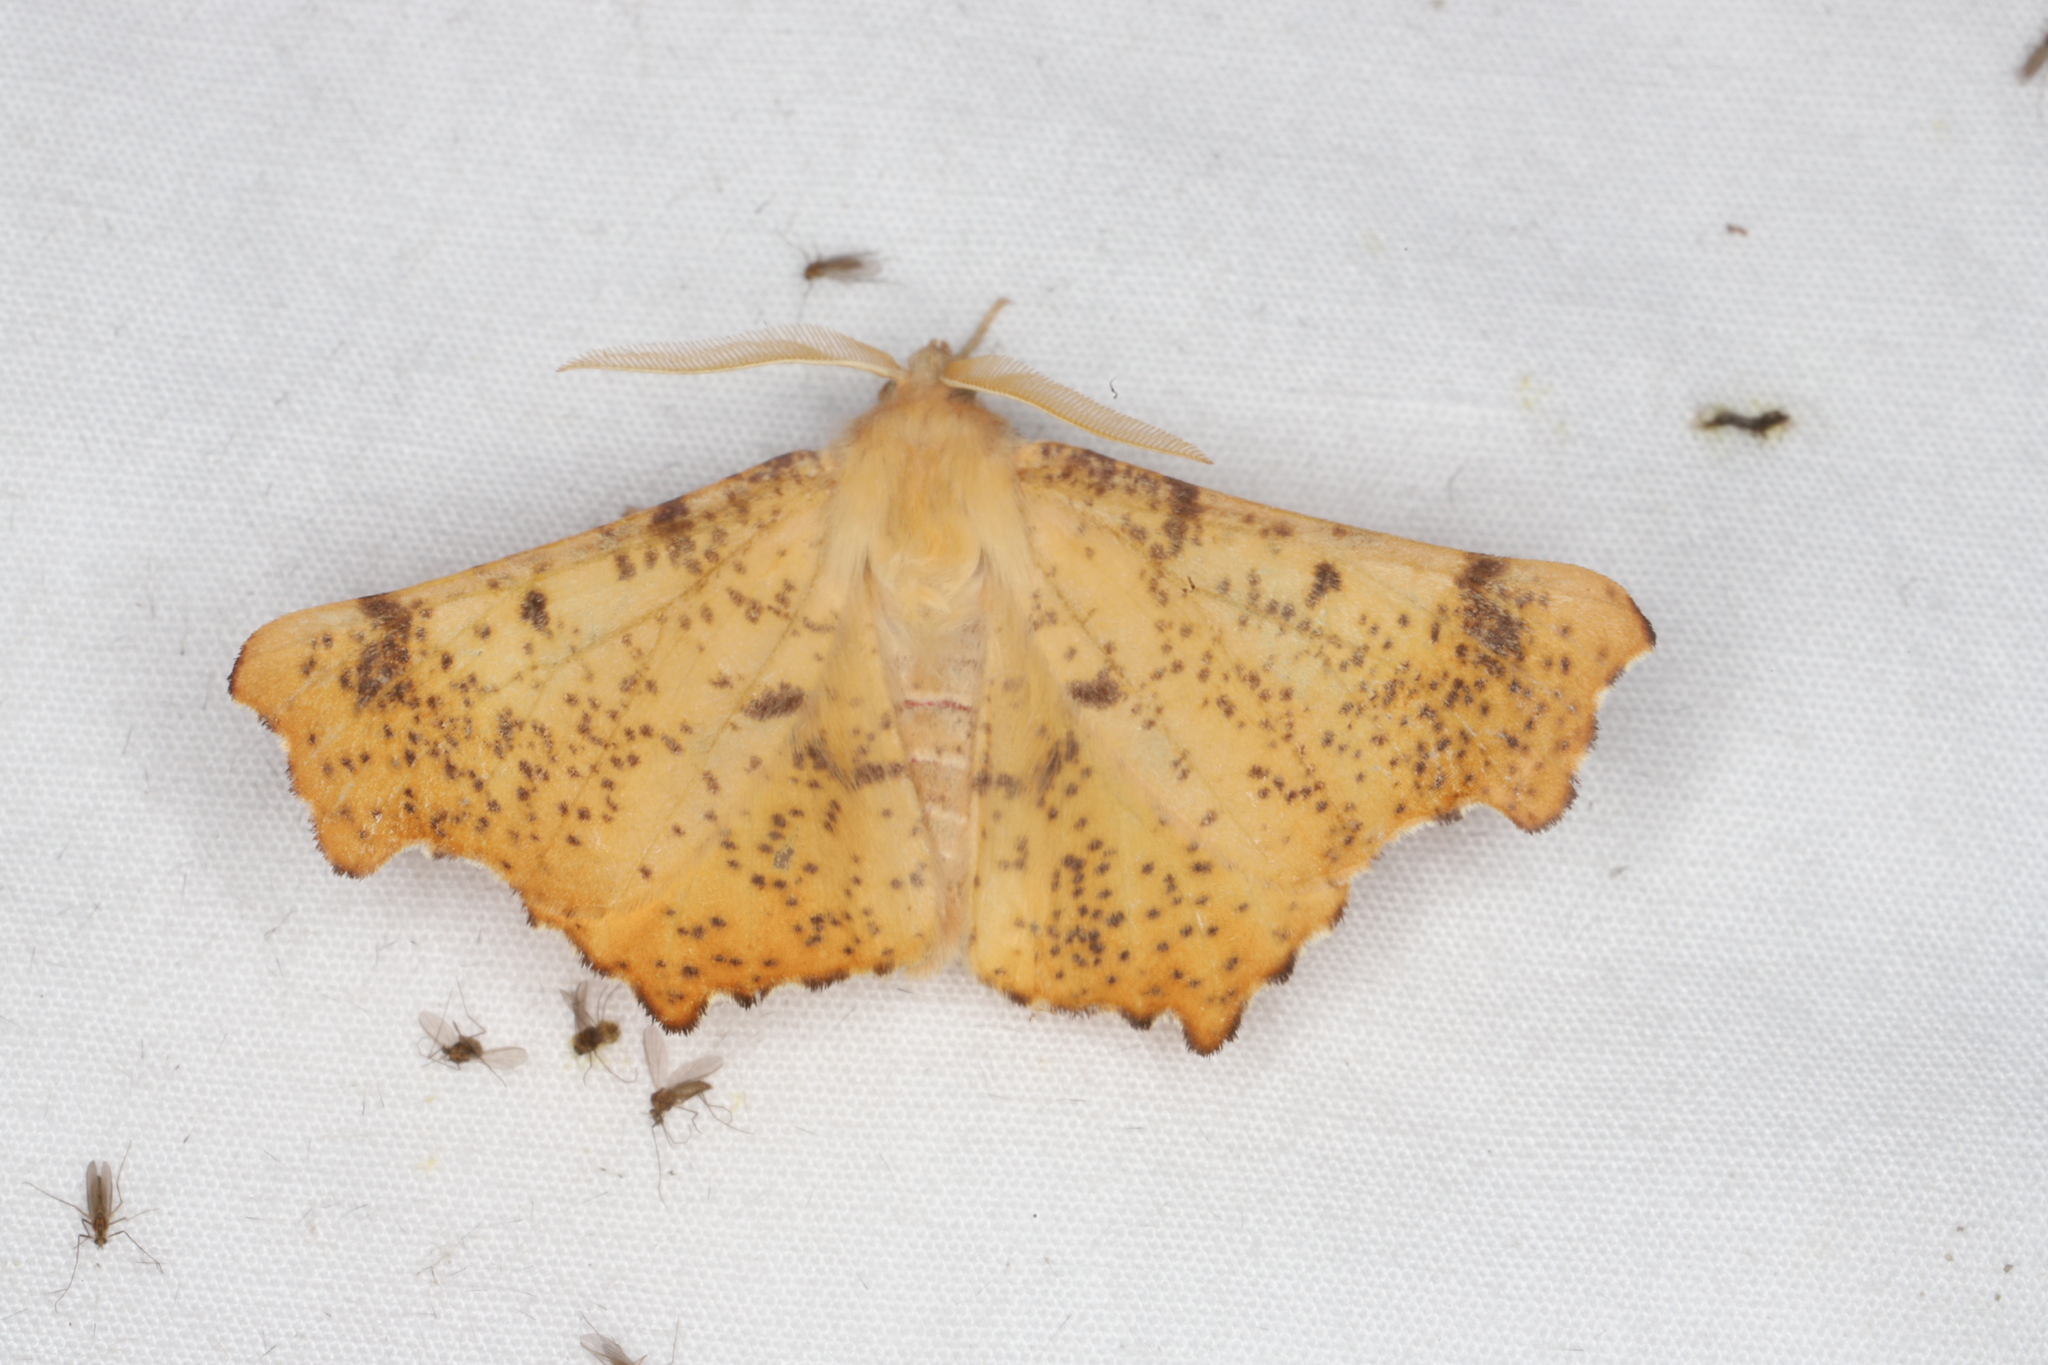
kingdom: Animalia
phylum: Arthropoda
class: Insecta
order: Lepidoptera
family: Geometridae
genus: Ennomos
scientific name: Ennomos magnaria
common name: Maple spanworm
